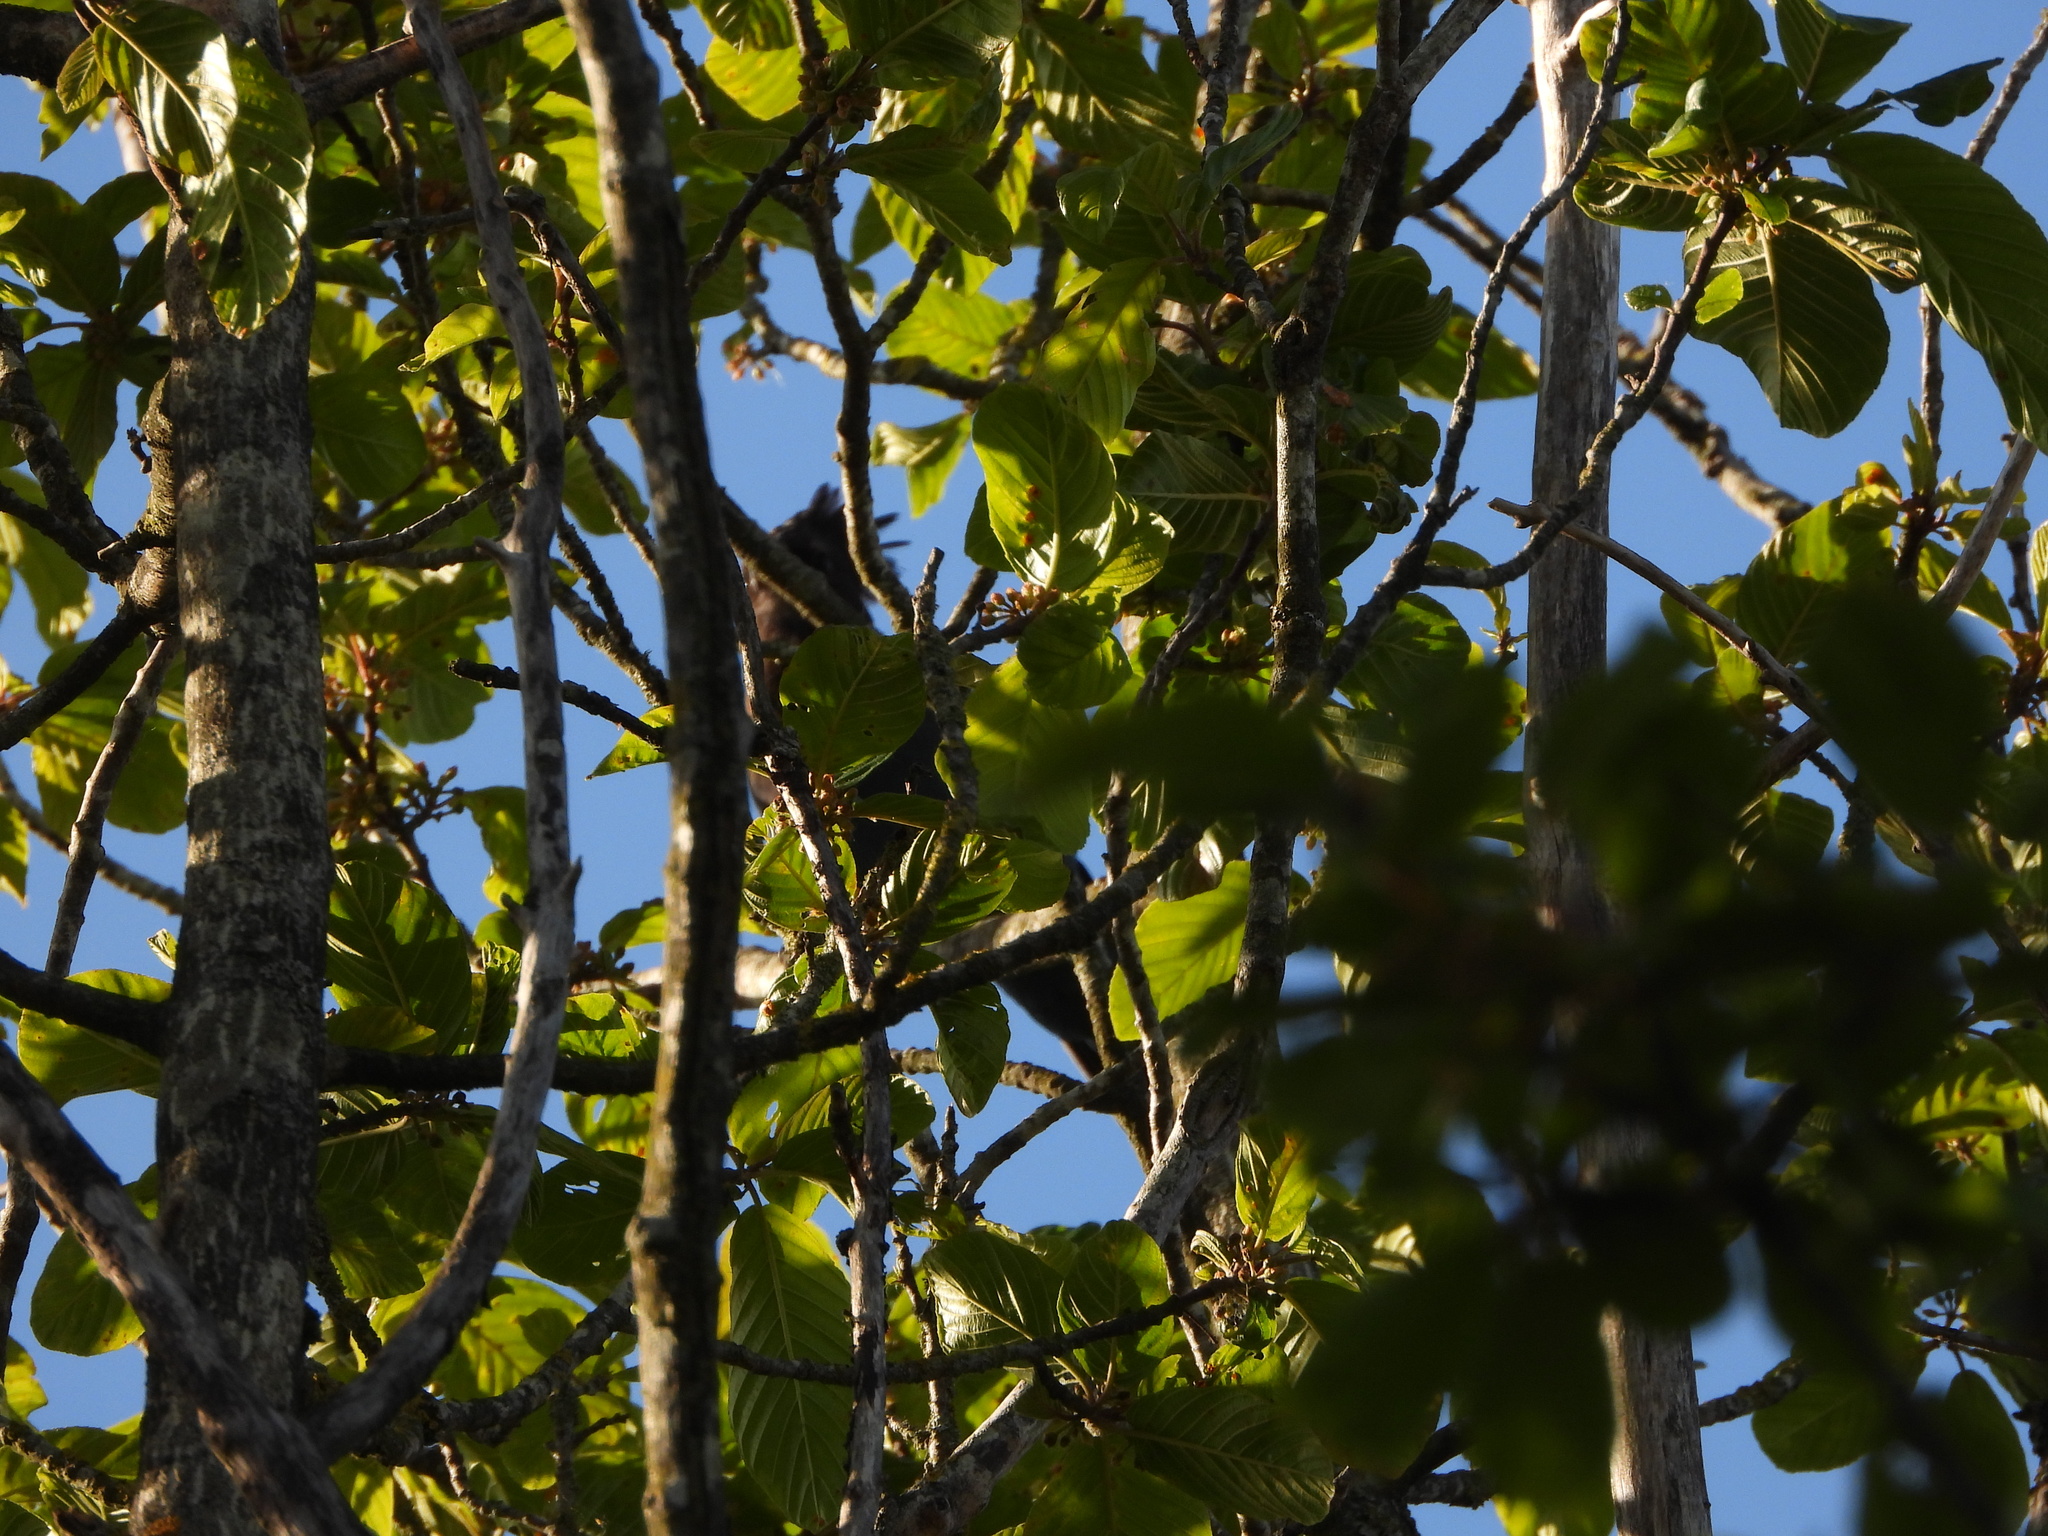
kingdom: Animalia
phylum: Chordata
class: Aves
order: Passeriformes
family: Corvidae
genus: Cyanocitta
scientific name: Cyanocitta stelleri
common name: Steller's jay
